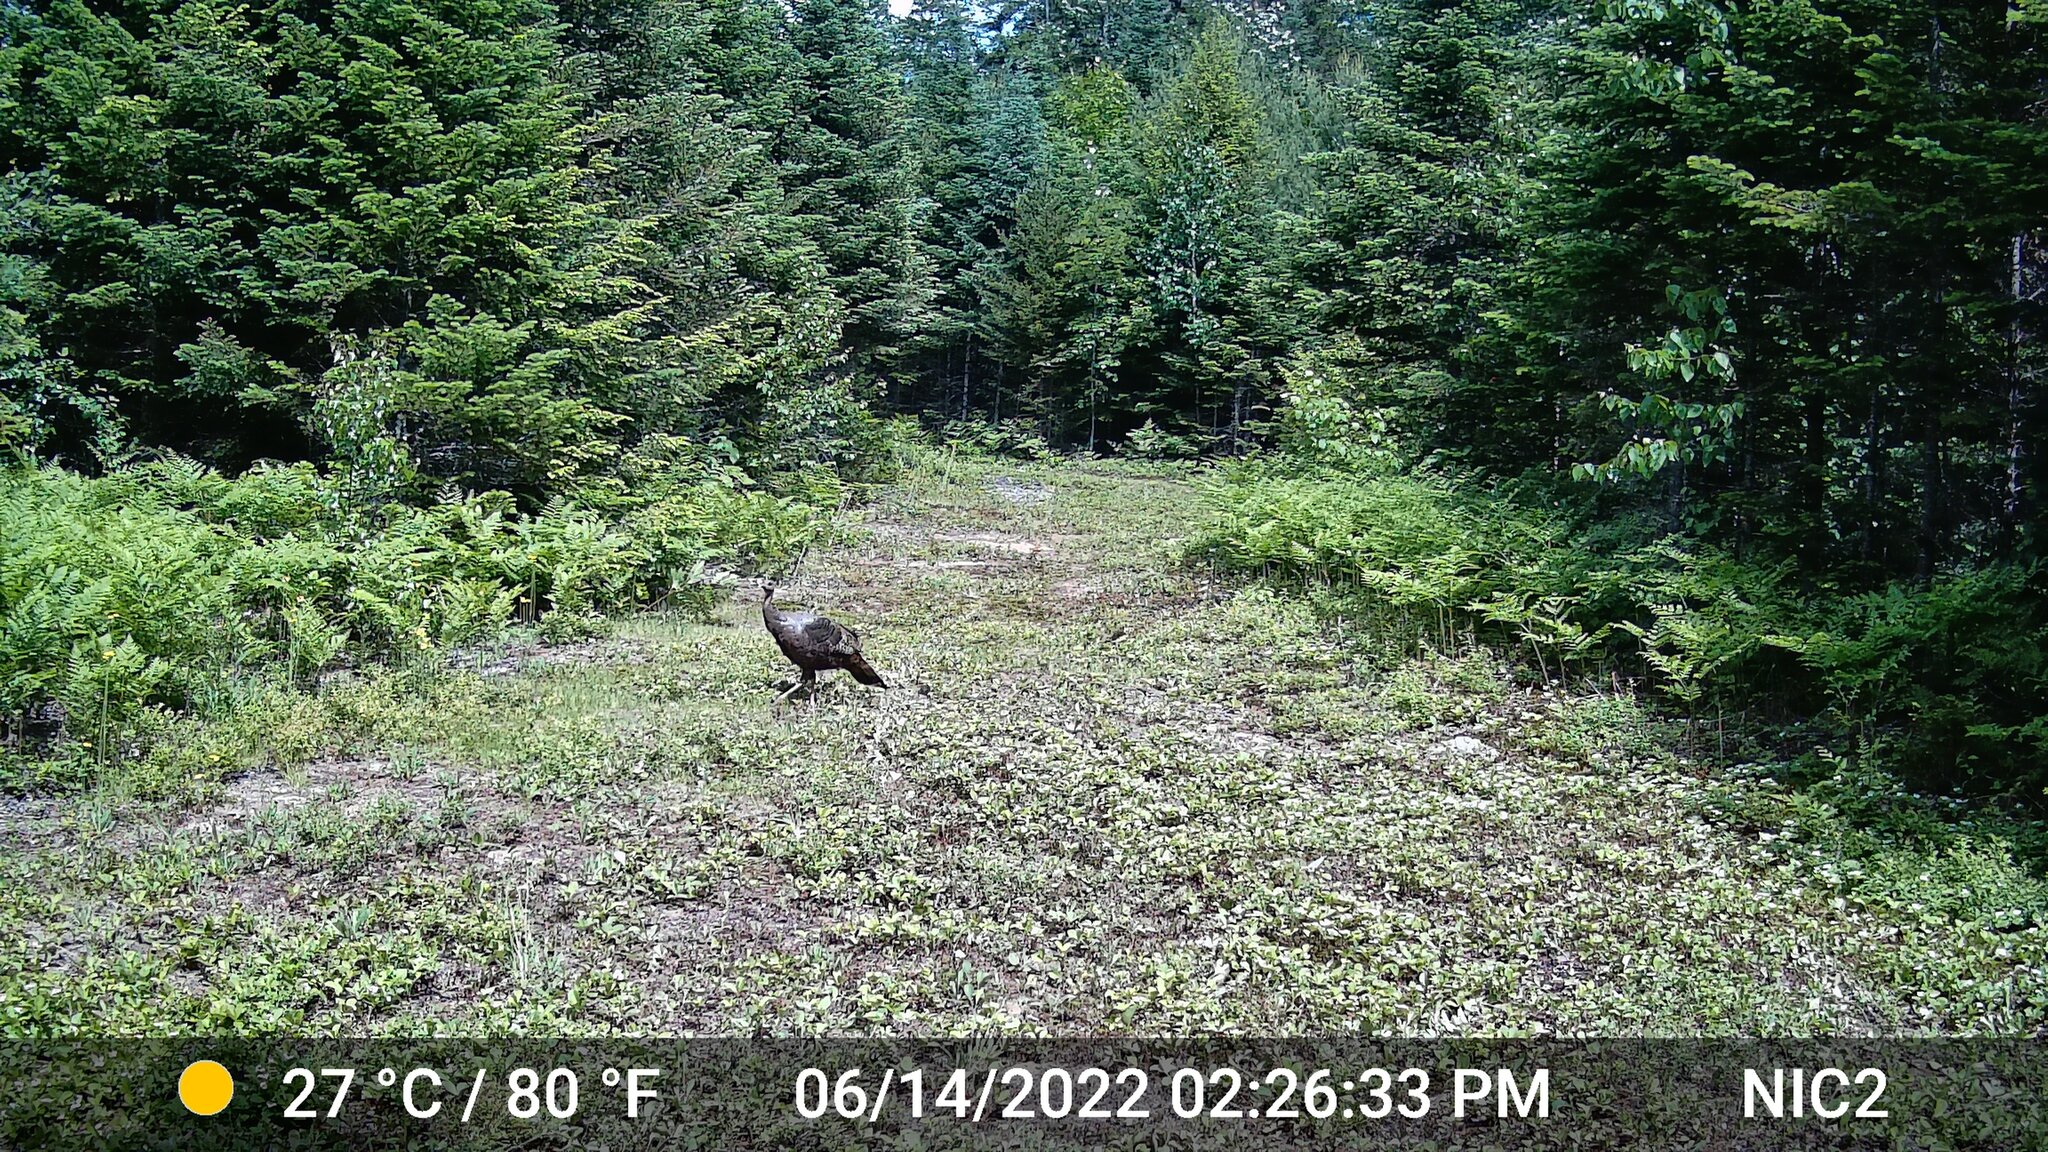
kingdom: Animalia
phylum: Chordata
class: Aves
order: Galliformes
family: Phasianidae
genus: Meleagris
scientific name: Meleagris gallopavo
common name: Wild turkey
